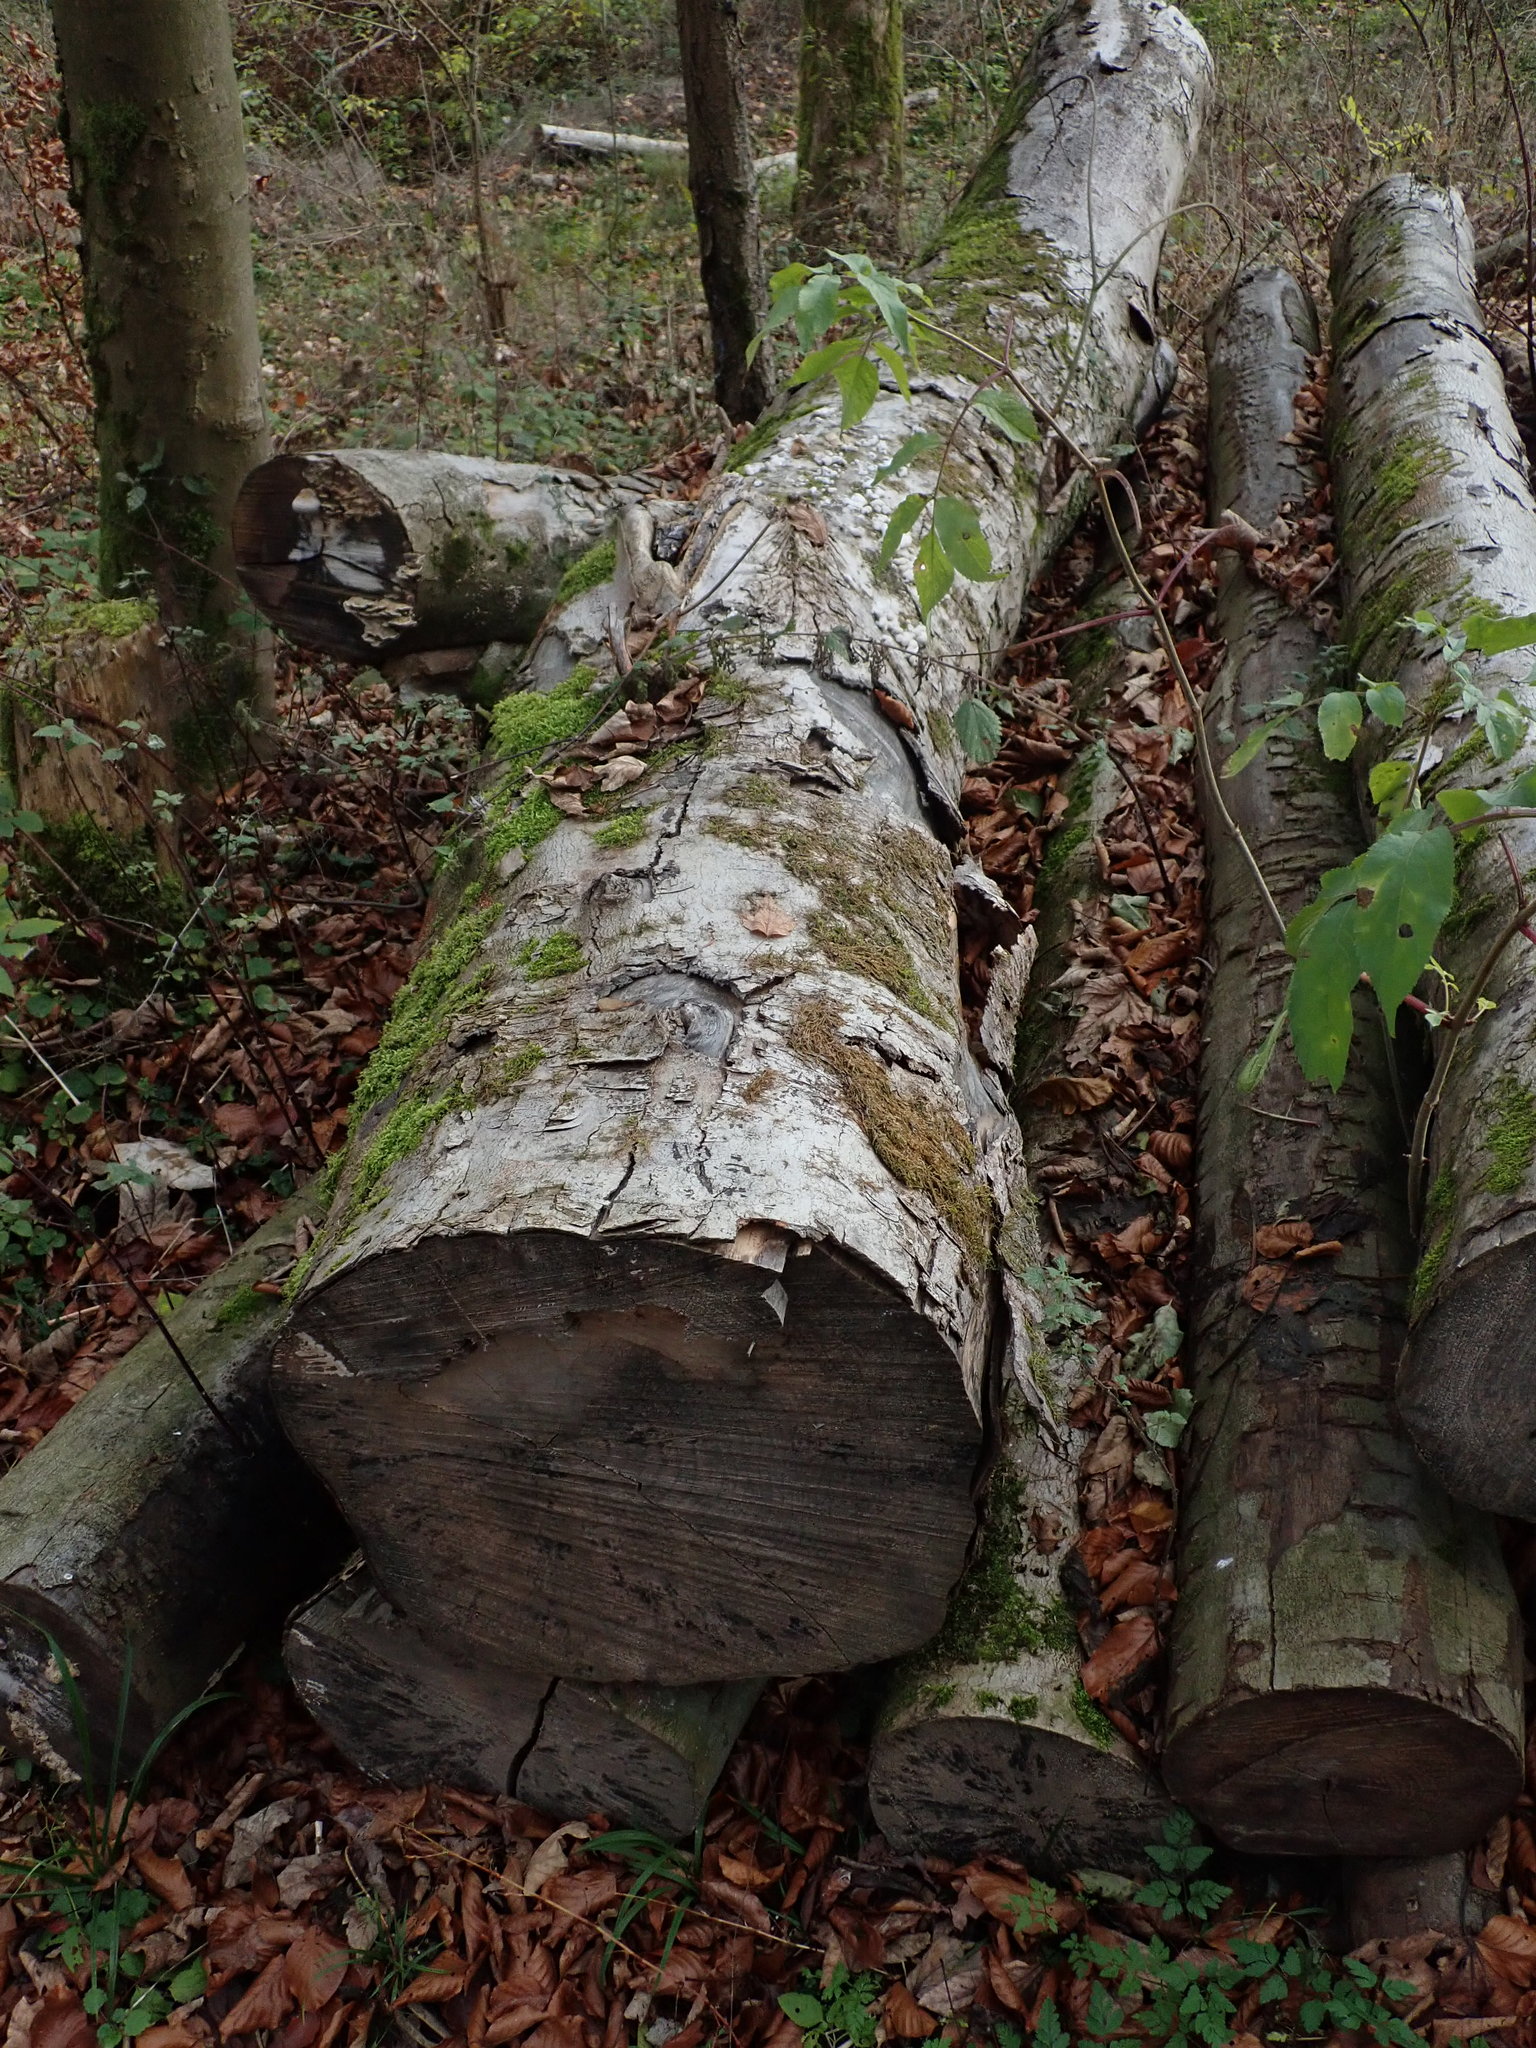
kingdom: Fungi
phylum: Ascomycota
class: Leotiomycetes
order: Helotiales
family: Helotiaceae
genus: Bispora
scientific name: Bispora pallescens
